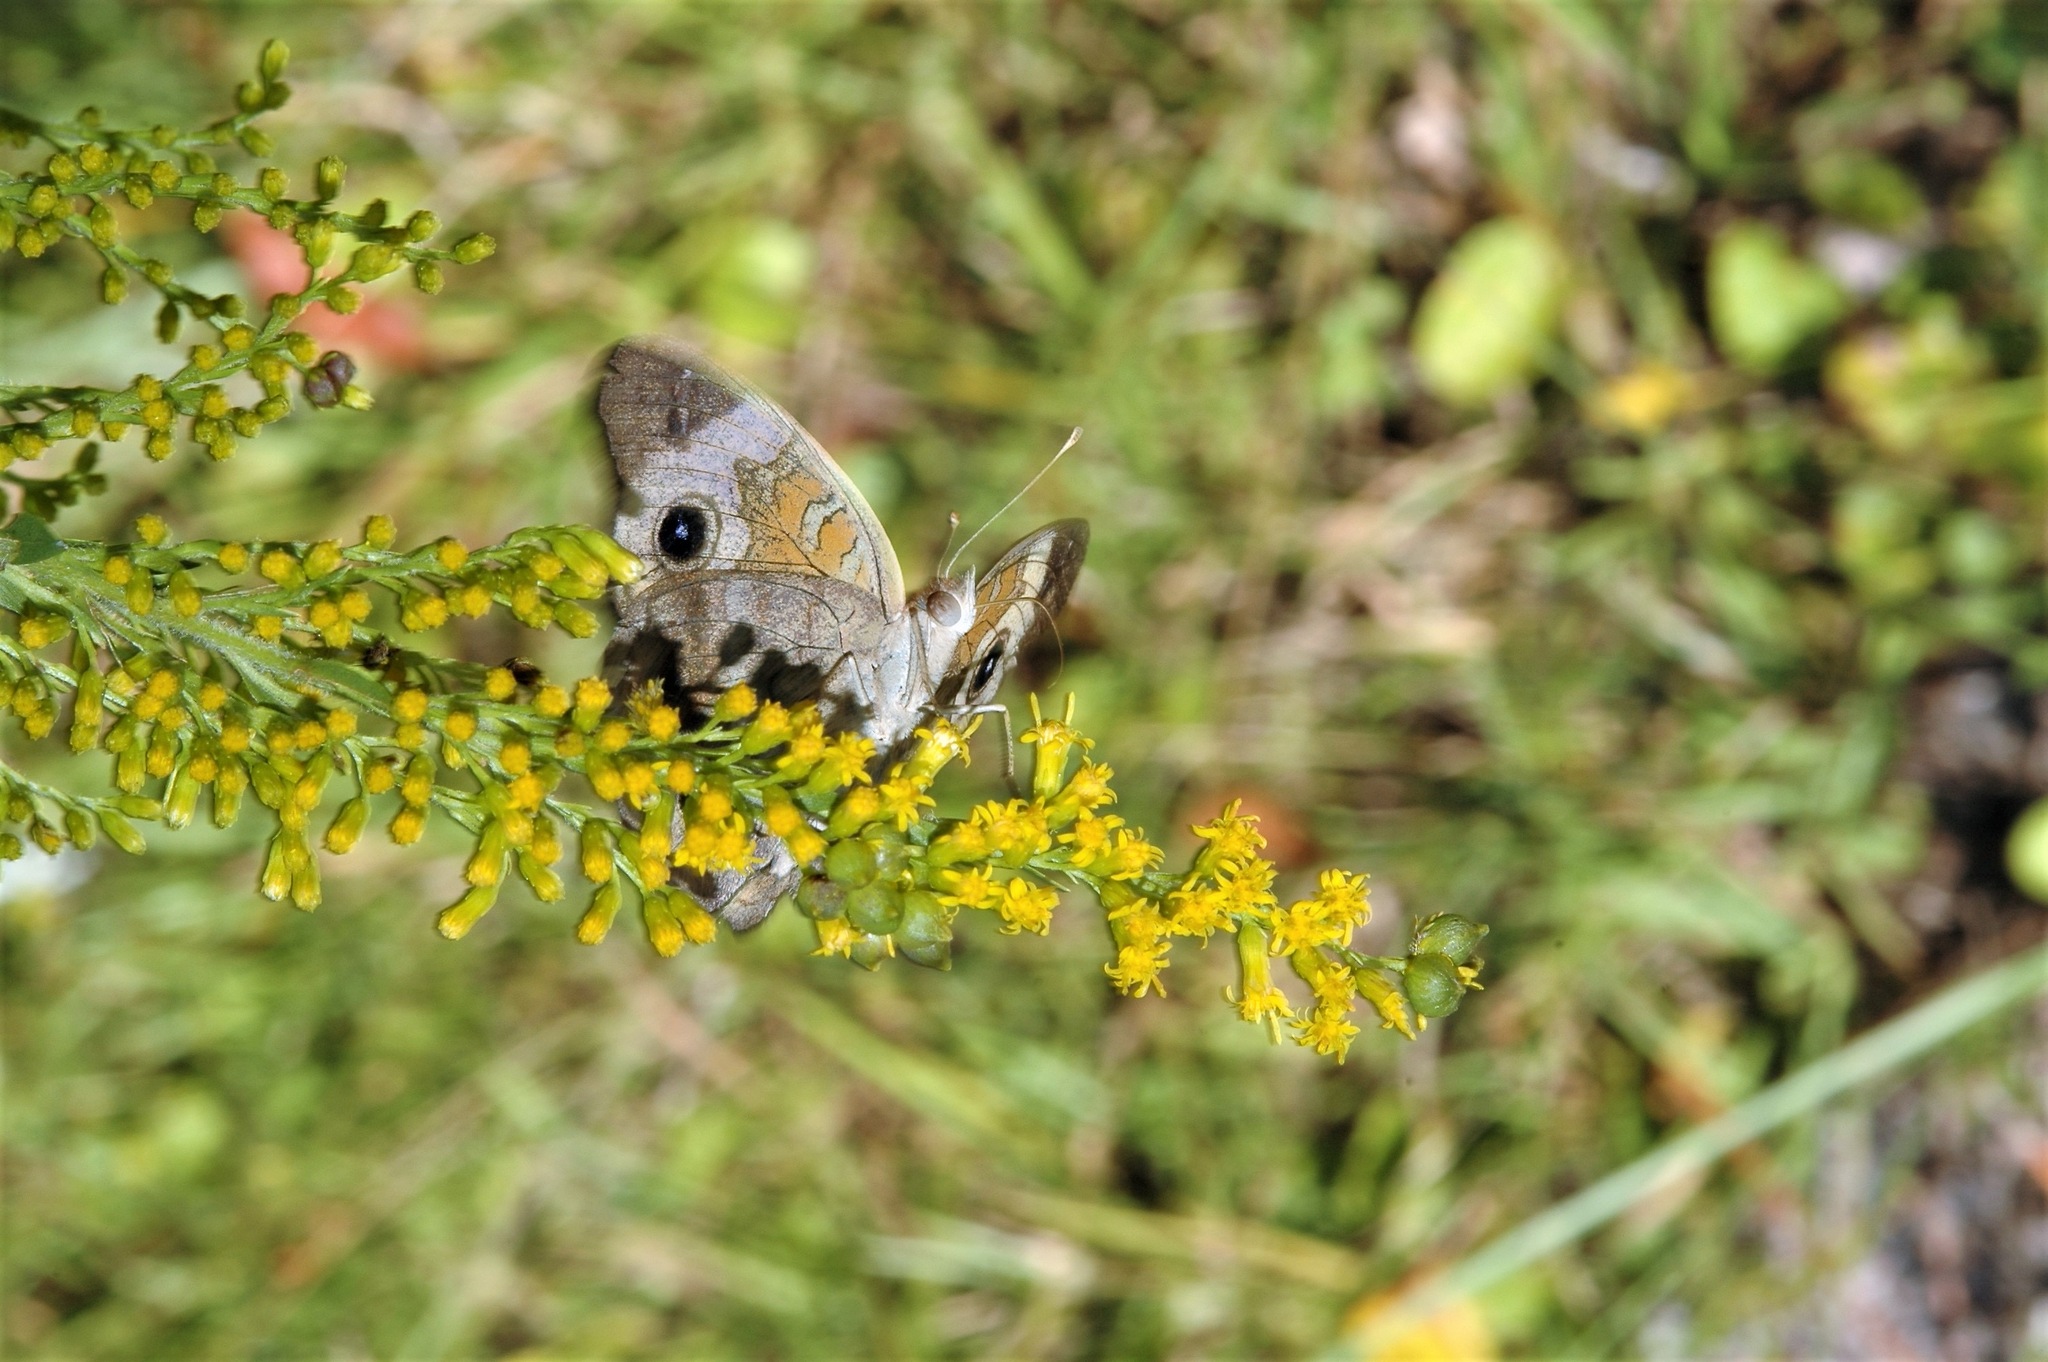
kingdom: Animalia
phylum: Arthropoda
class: Insecta
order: Lepidoptera
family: Nymphalidae
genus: Junonia
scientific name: Junonia coenia
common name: Common buckeye
